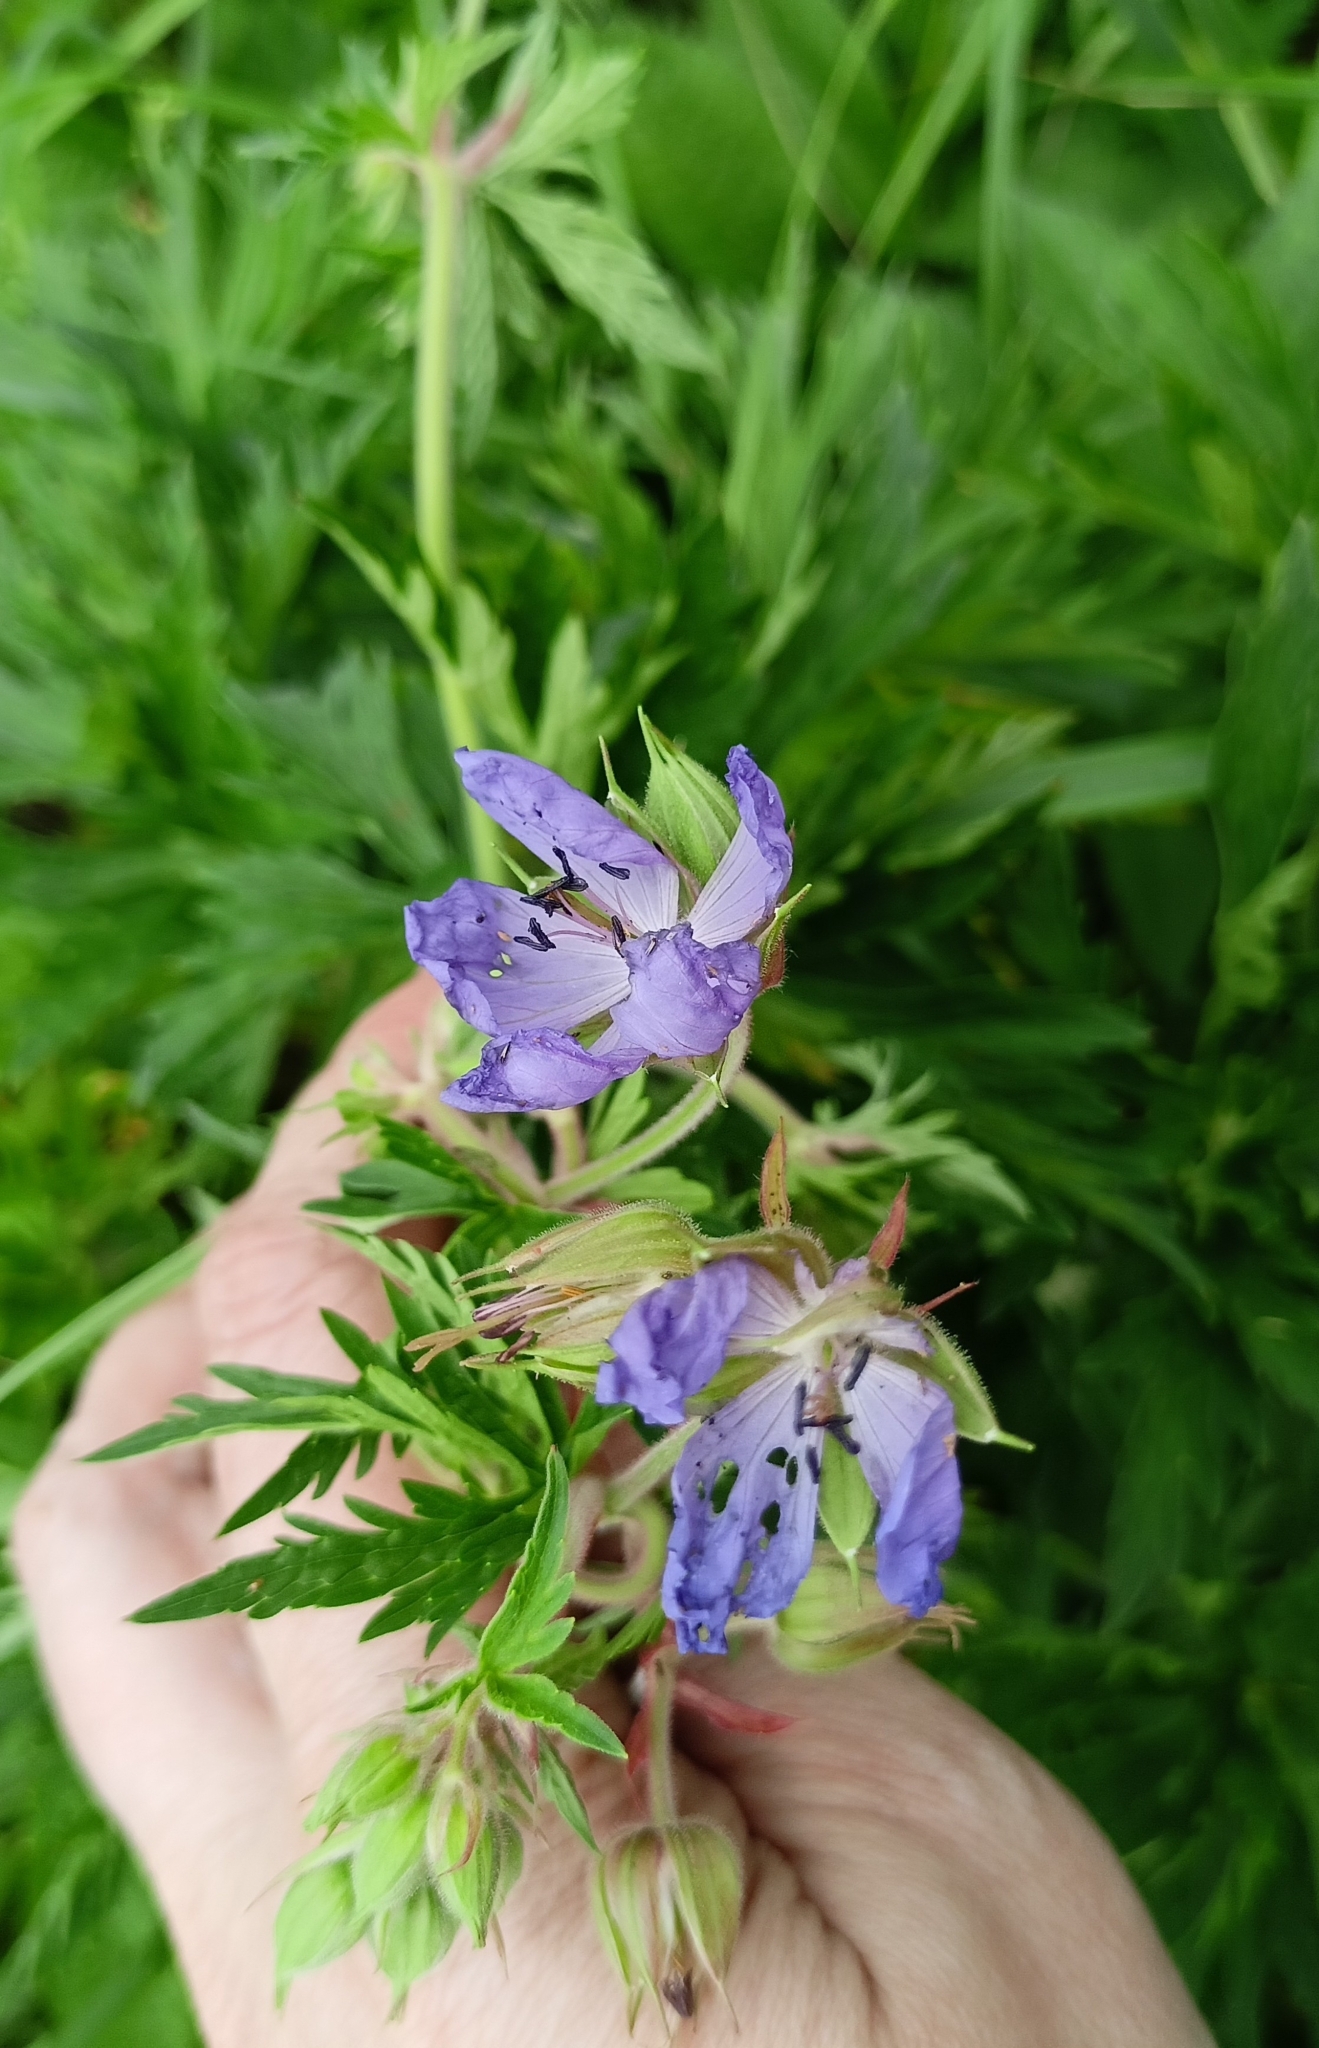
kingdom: Plantae
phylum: Tracheophyta
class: Magnoliopsida
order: Geraniales
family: Geraniaceae
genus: Geranium
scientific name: Geranium pratense
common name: Meadow crane's-bill
